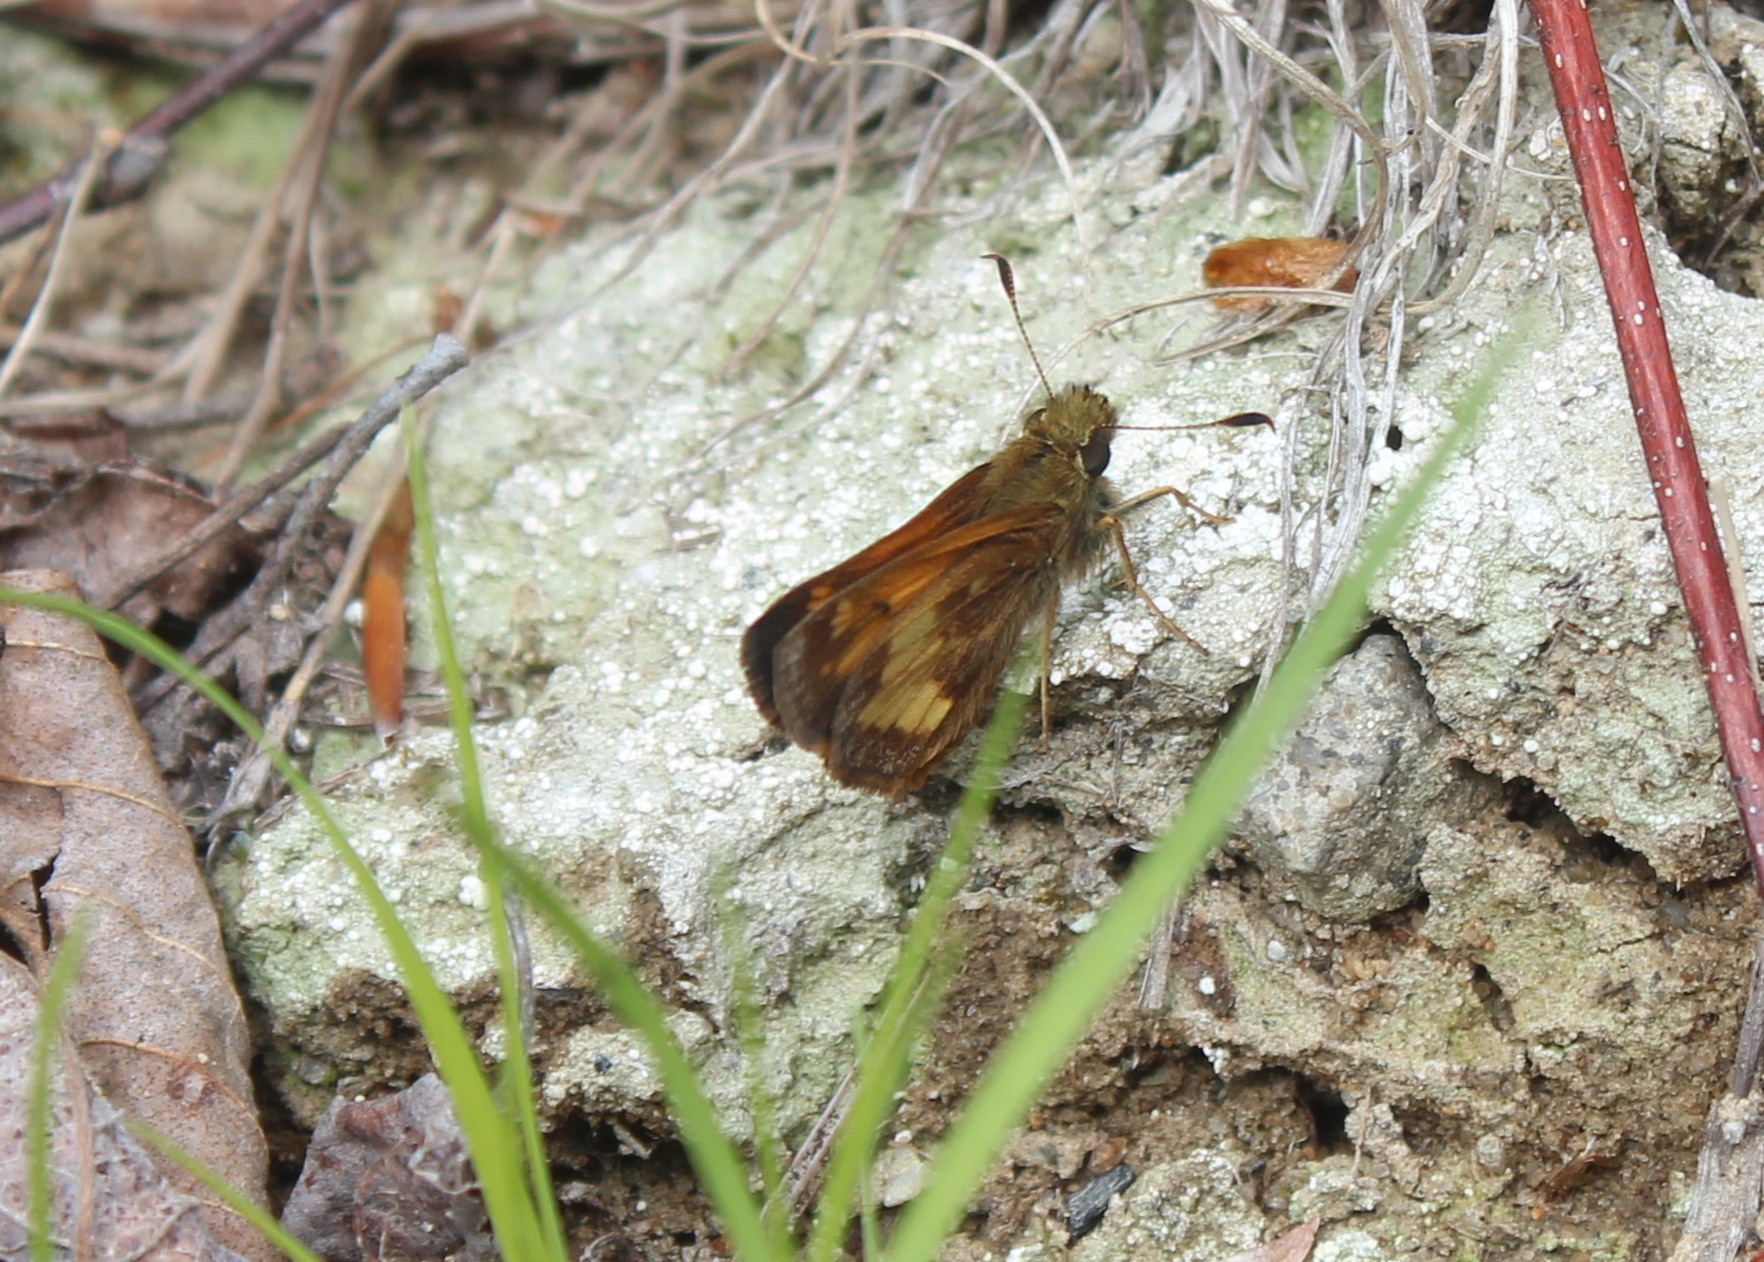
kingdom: Animalia
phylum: Arthropoda
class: Insecta
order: Lepidoptera
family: Hesperiidae
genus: Lon
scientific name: Lon hobomok
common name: Hobomok skipper
